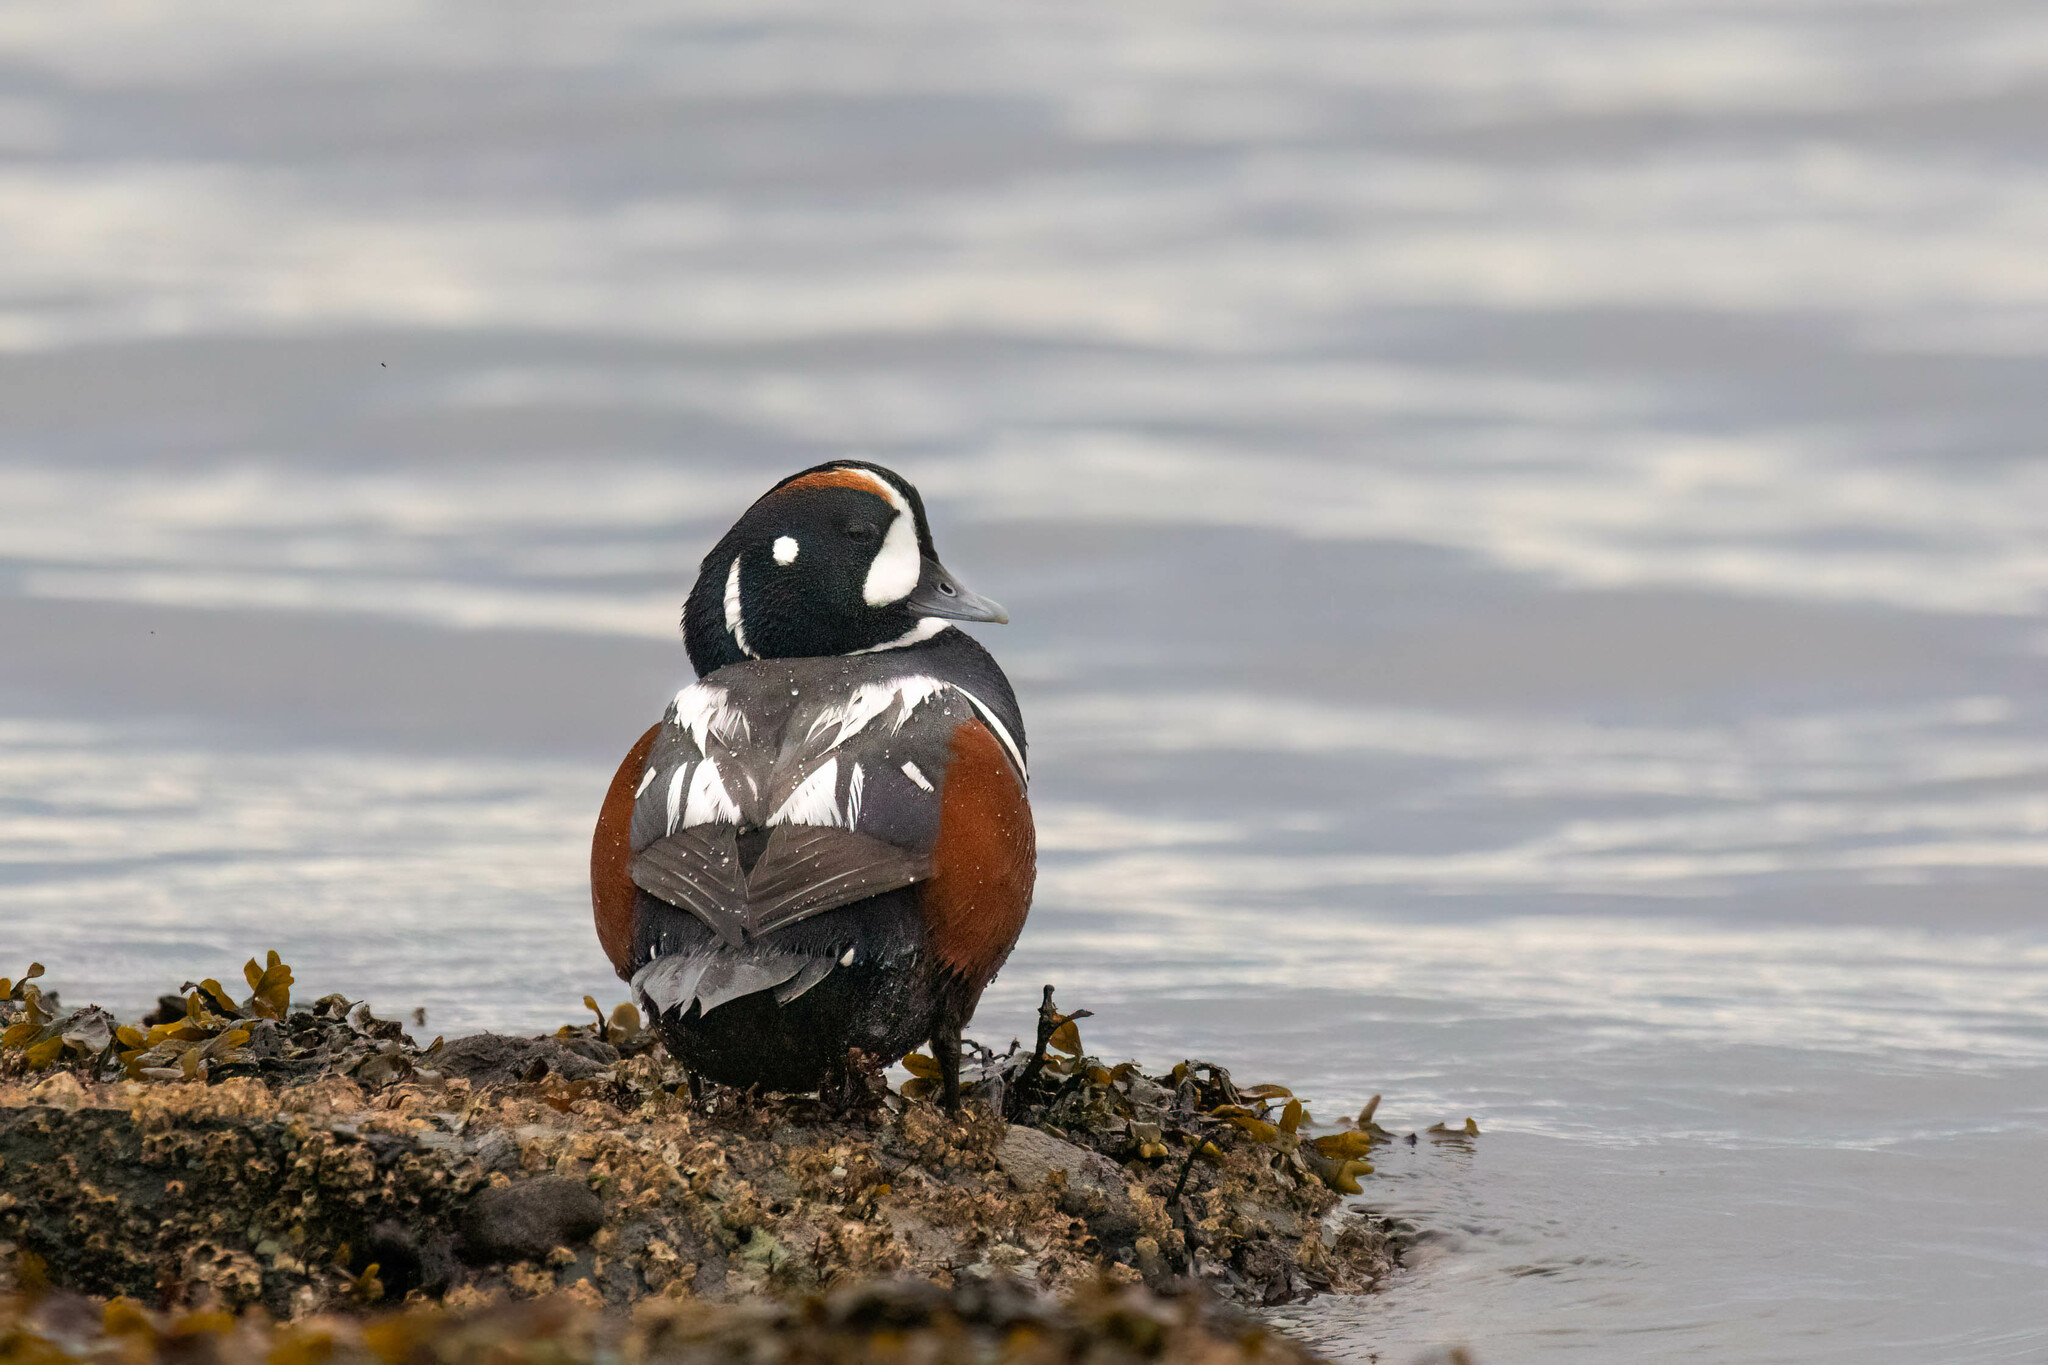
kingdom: Animalia
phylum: Chordata
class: Aves
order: Anseriformes
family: Anatidae
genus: Histrionicus
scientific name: Histrionicus histrionicus
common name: Harlequin duck
